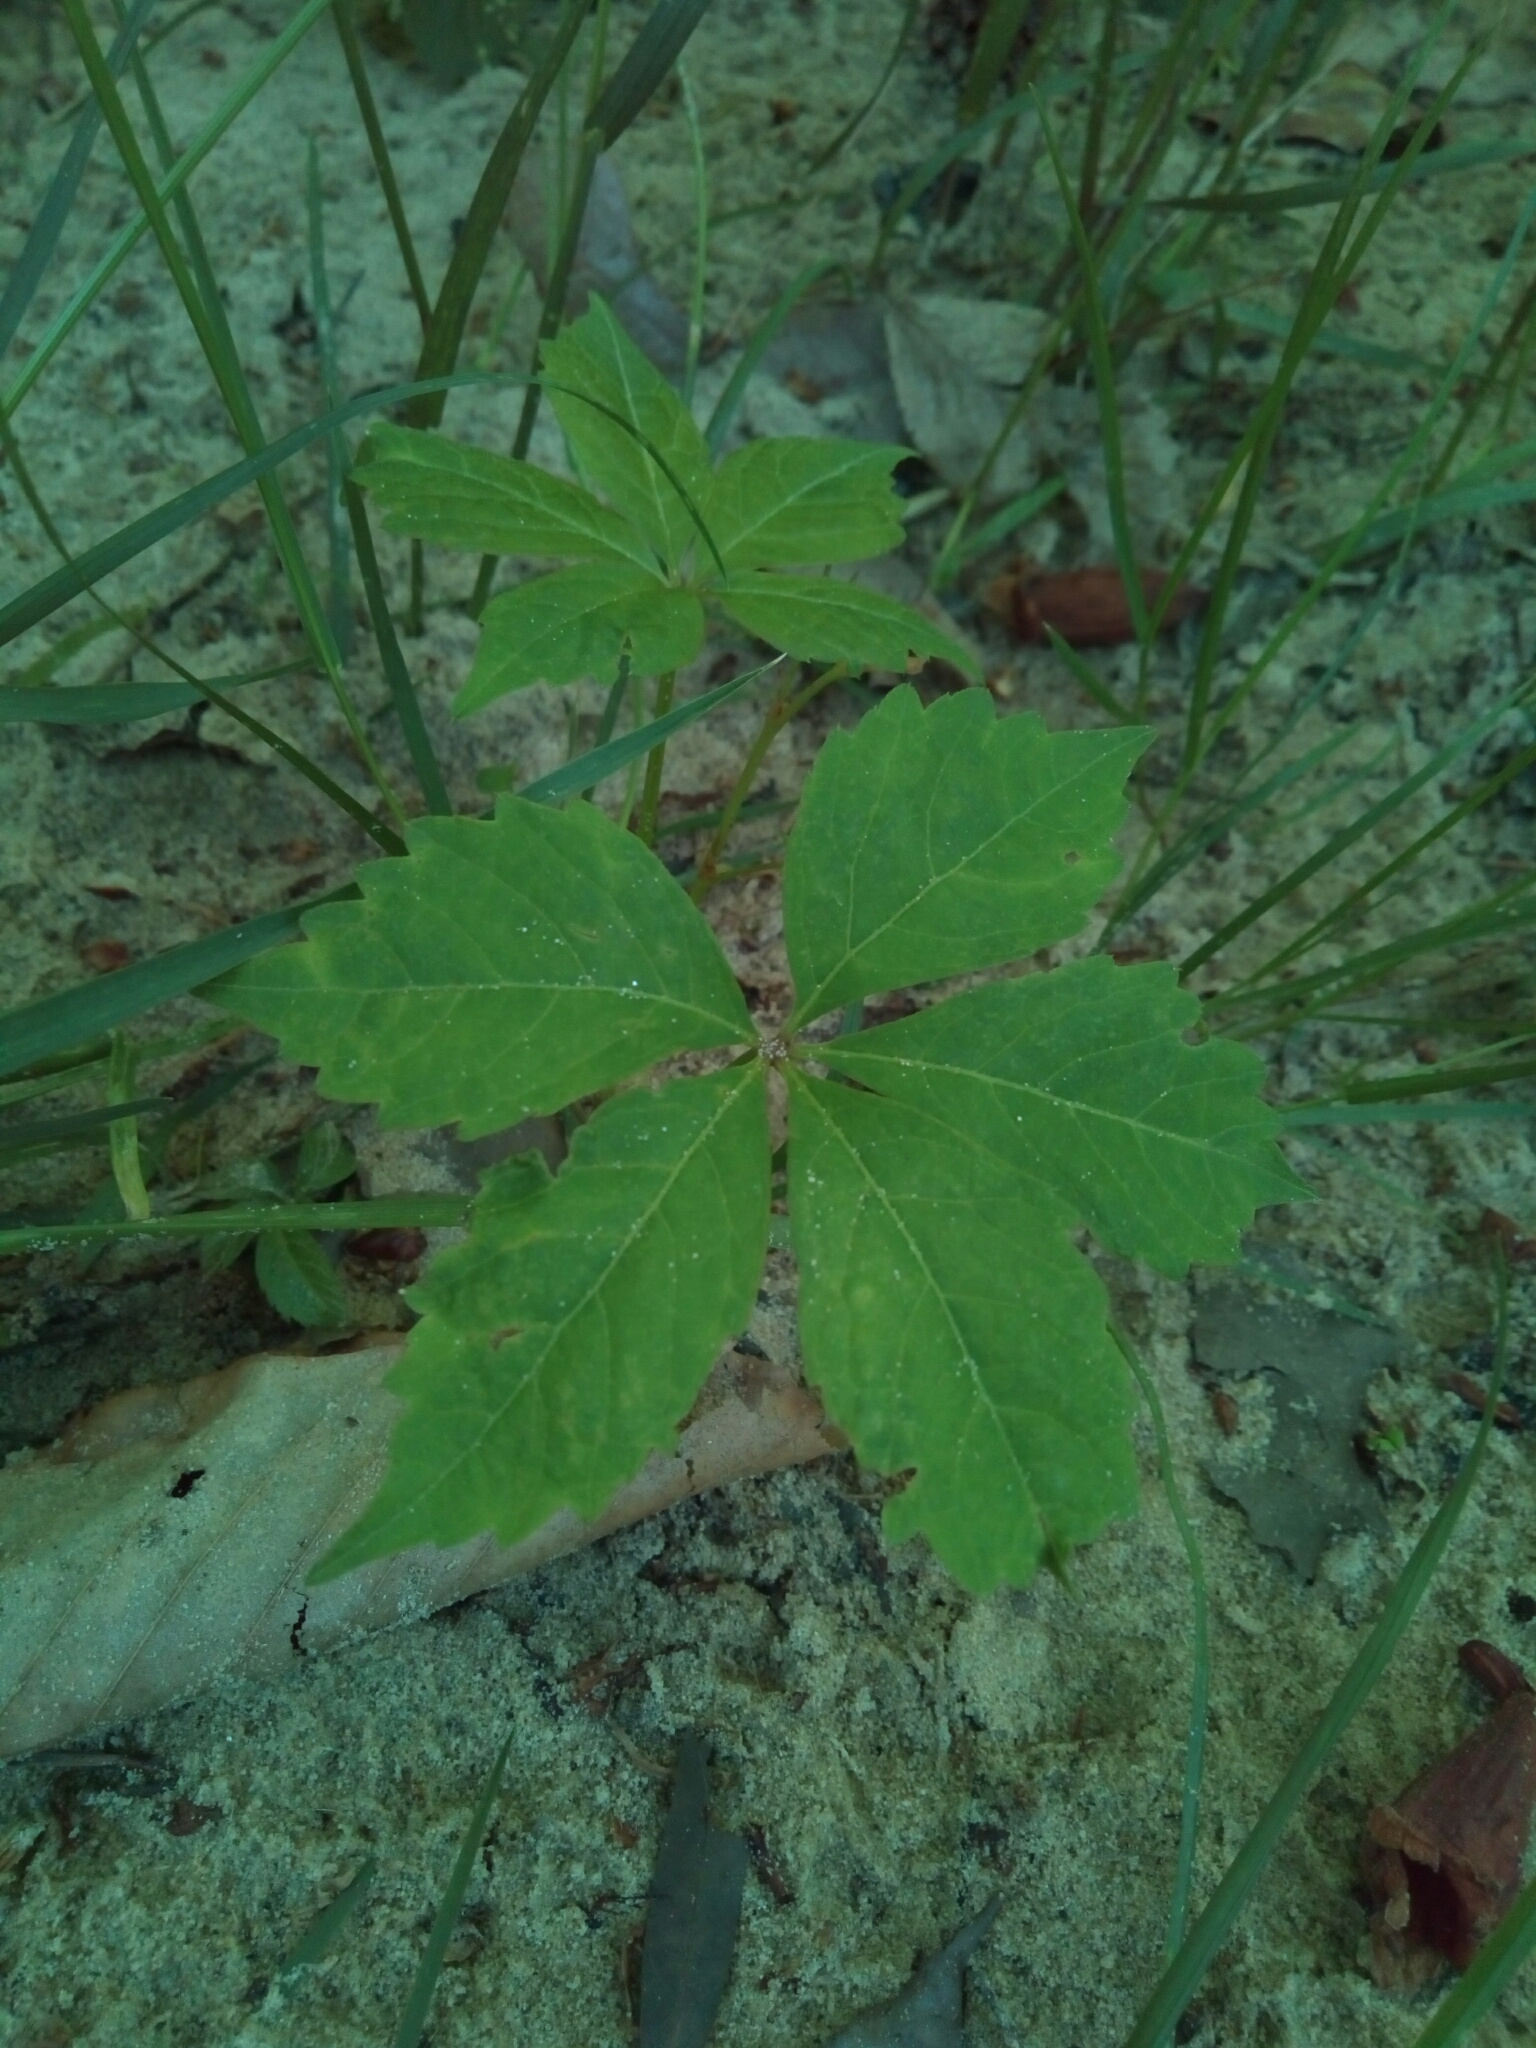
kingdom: Plantae
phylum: Tracheophyta
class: Magnoliopsida
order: Vitales
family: Vitaceae
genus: Parthenocissus
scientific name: Parthenocissus quinquefolia
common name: Virginia-creeper
